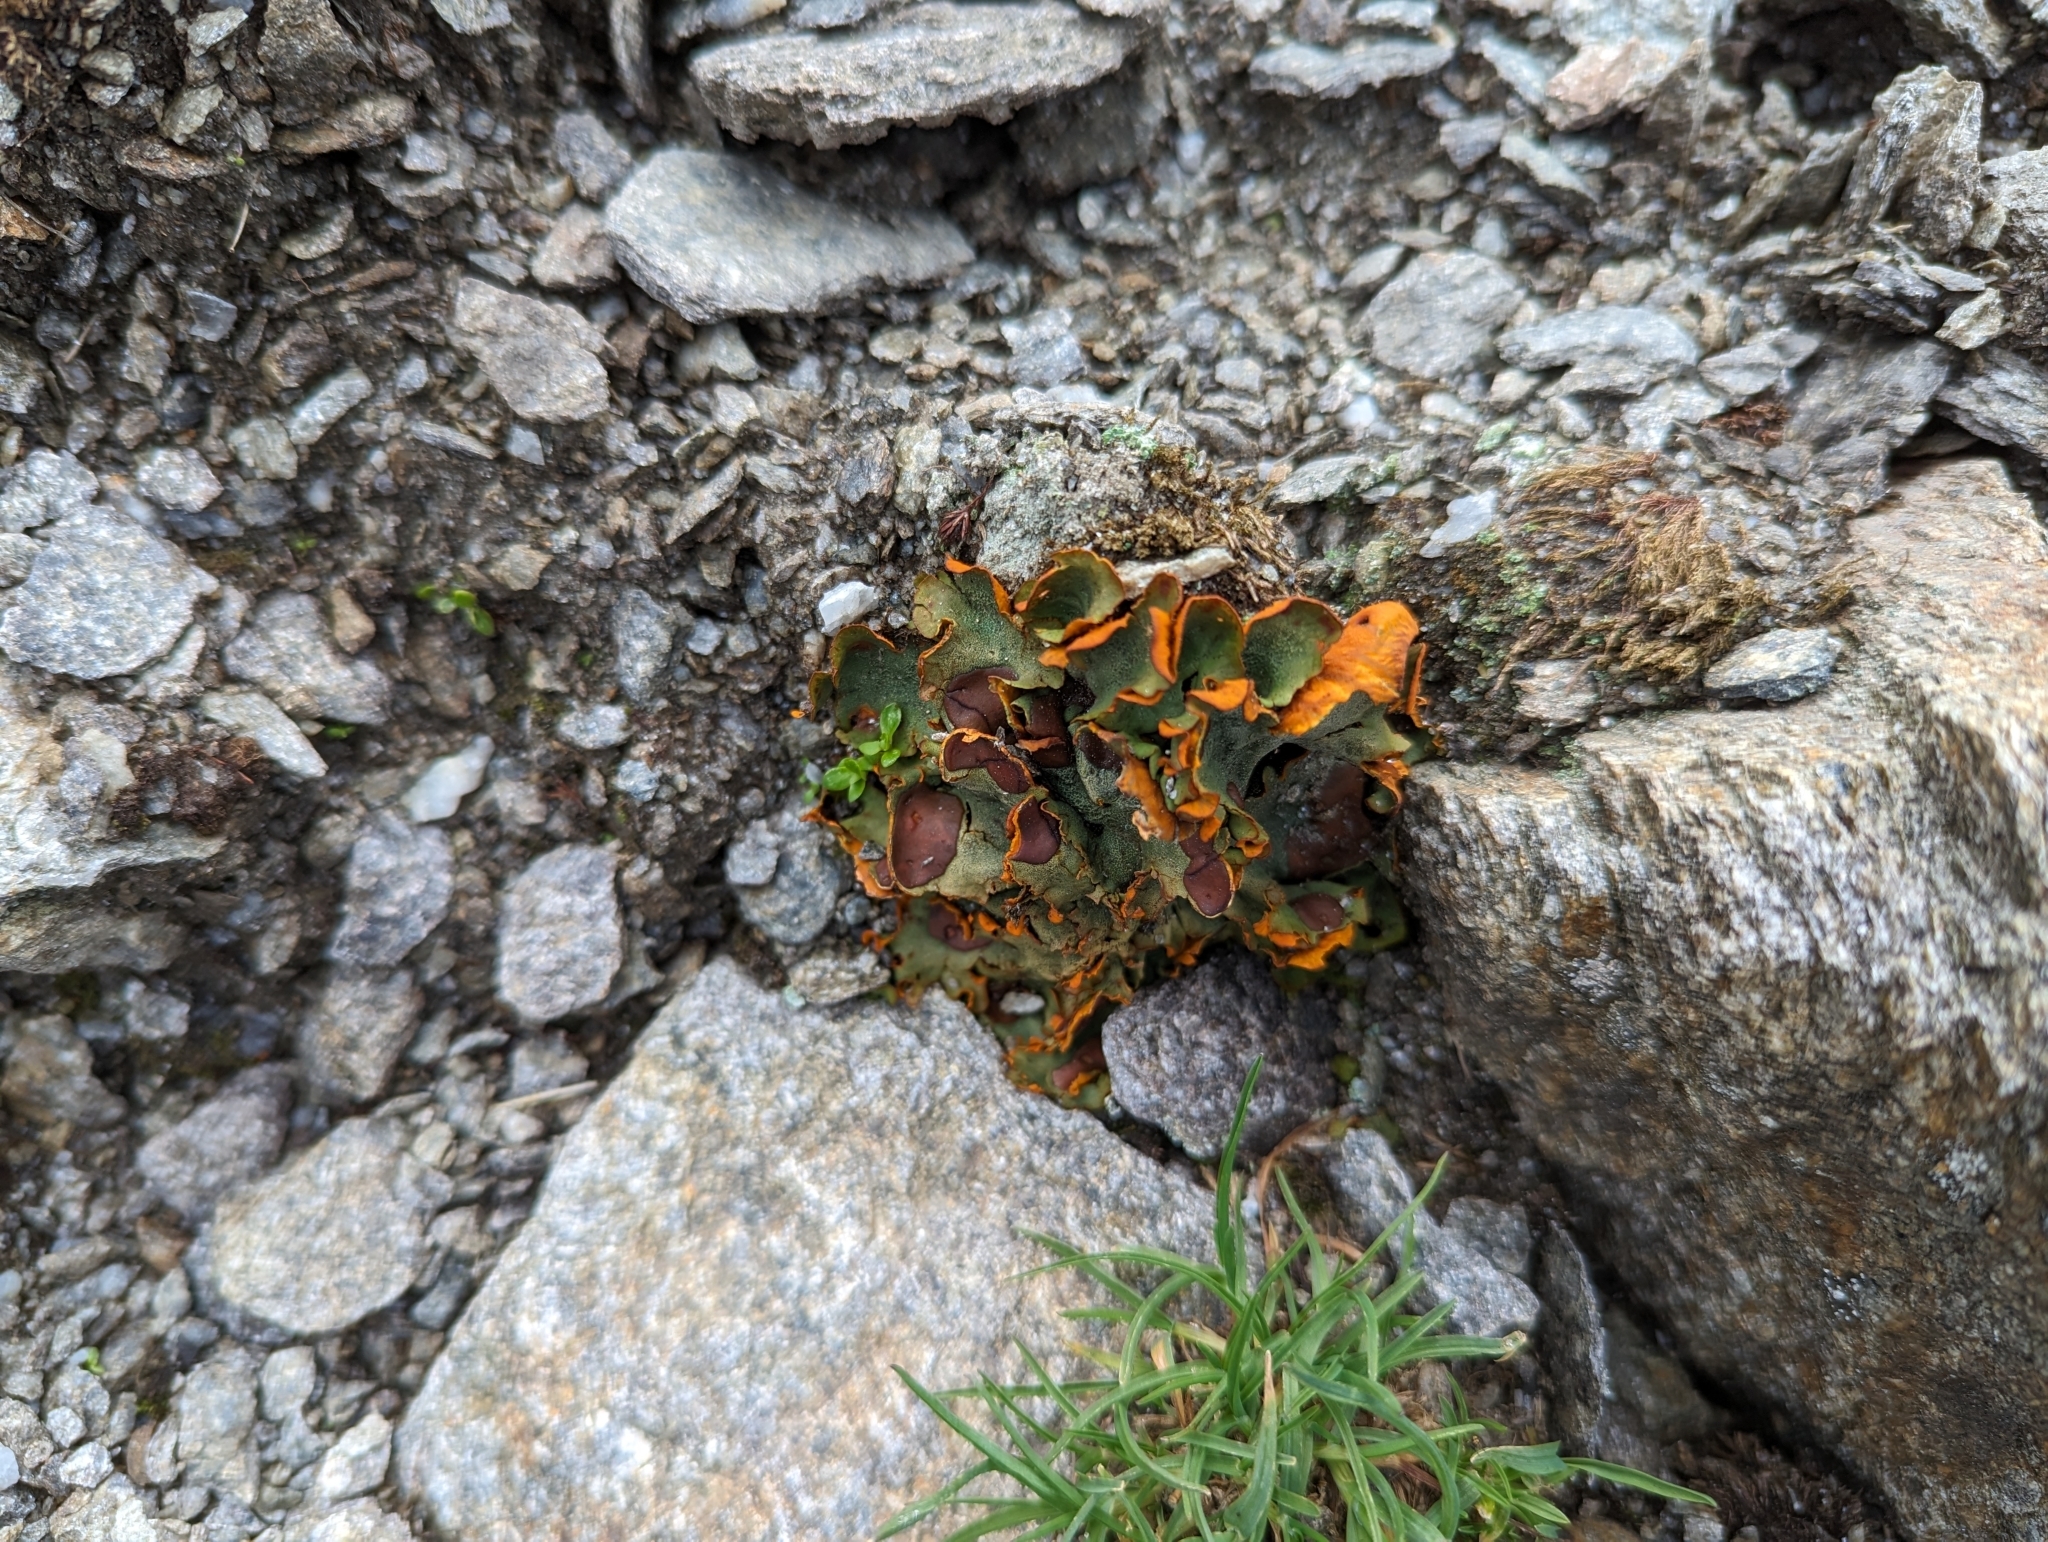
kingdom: Fungi
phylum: Ascomycota
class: Lecanoromycetes
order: Peltigerales
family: Peltigeraceae
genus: Solorina
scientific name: Solorina crocea
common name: Mountain saffron
